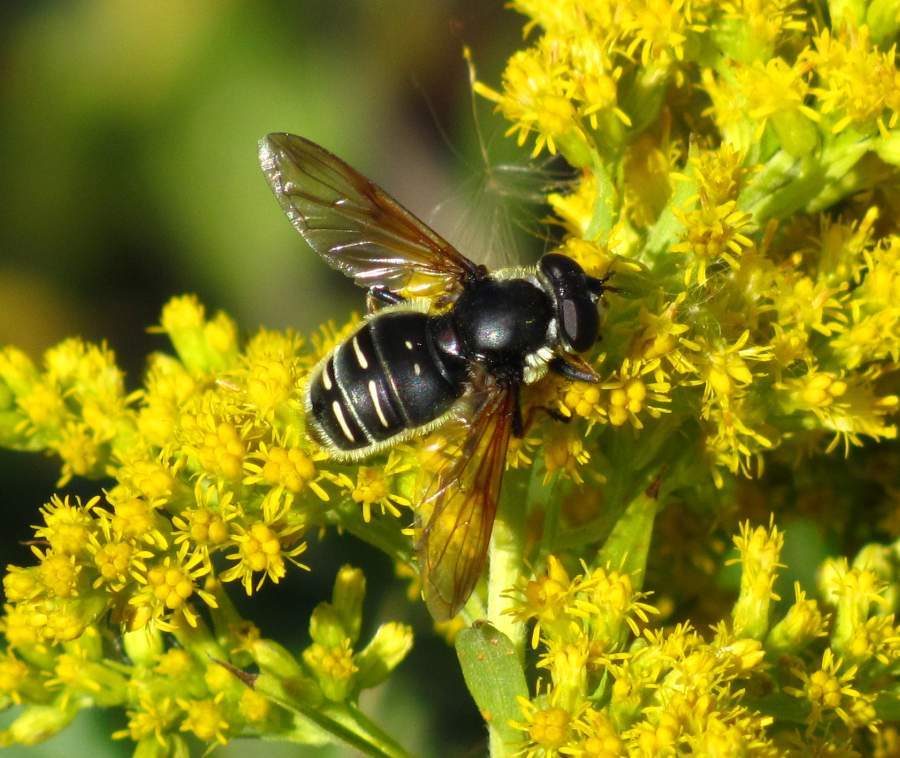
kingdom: Animalia
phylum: Arthropoda
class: Insecta
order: Diptera
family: Syrphidae
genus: Sericomyia
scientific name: Sericomyia militaris
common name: Narrow-banded pond fly
